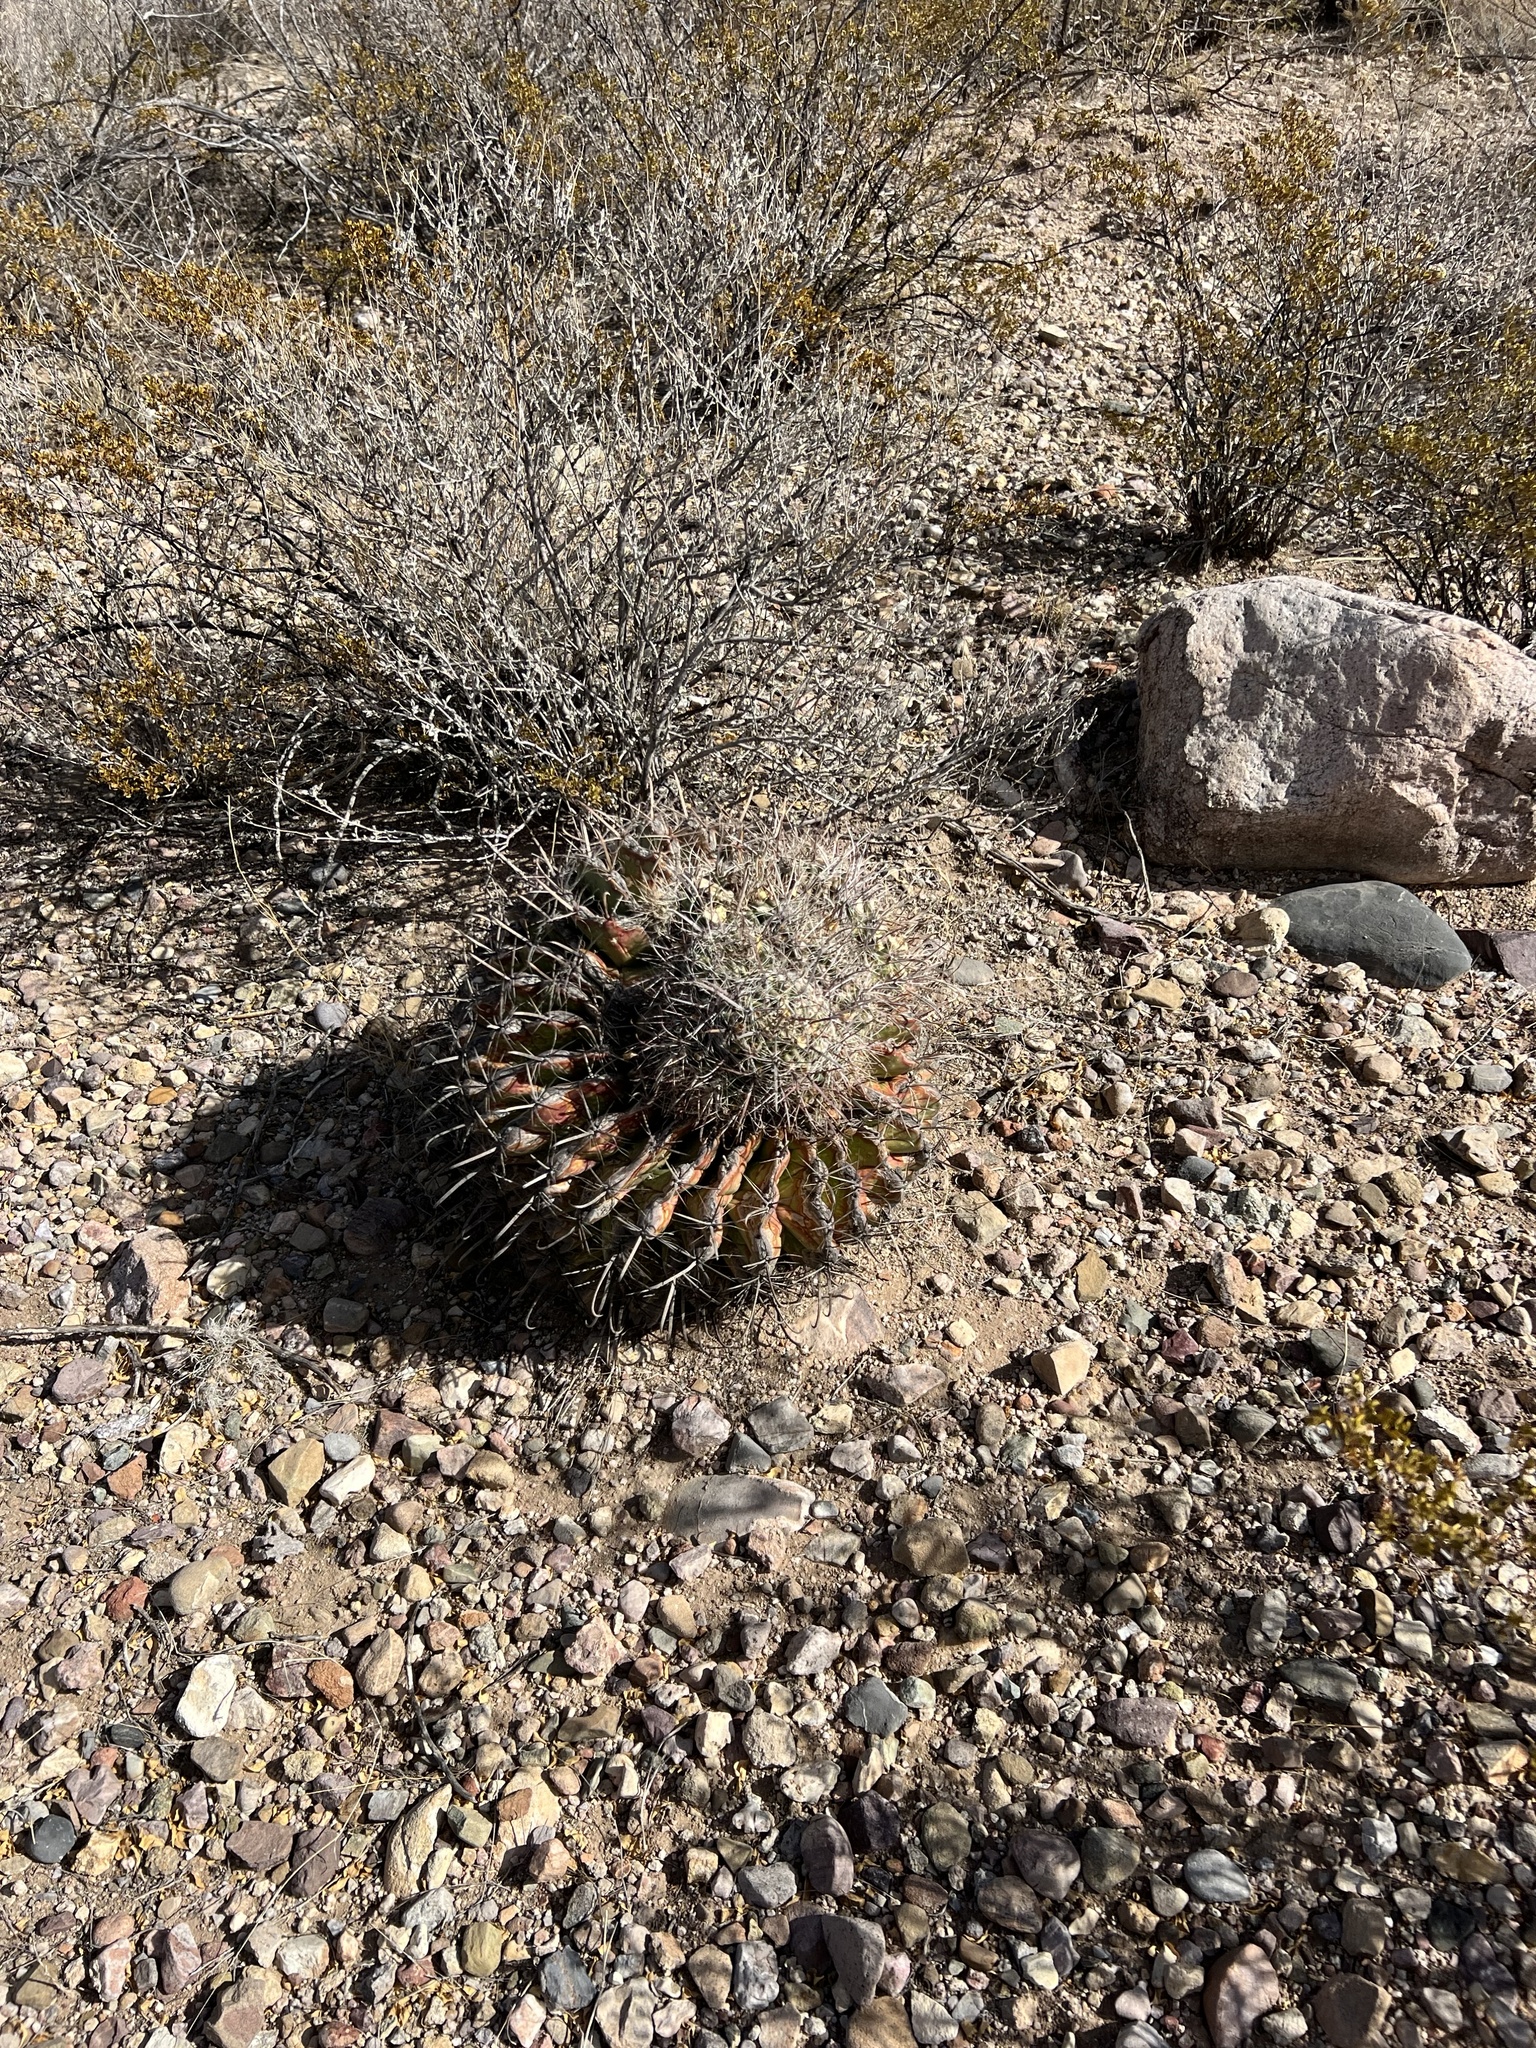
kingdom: Plantae
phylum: Tracheophyta
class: Magnoliopsida
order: Caryophyllales
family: Cactaceae
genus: Ferocactus
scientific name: Ferocactus wislizeni
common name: Candy barrel cactus
